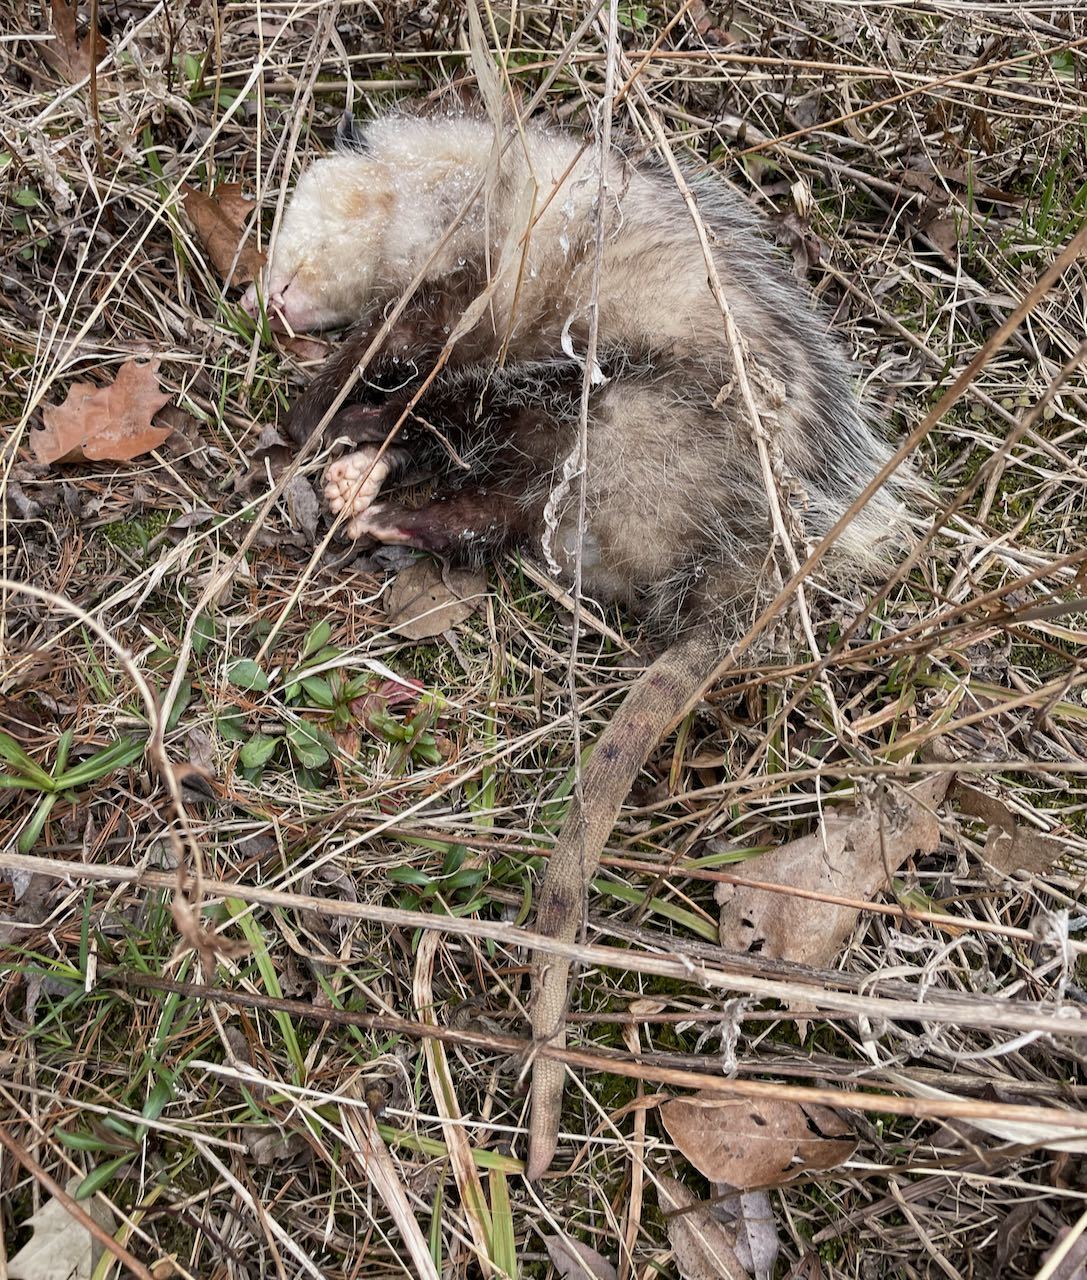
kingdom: Animalia
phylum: Chordata
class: Mammalia
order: Didelphimorphia
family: Didelphidae
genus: Didelphis
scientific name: Didelphis virginiana
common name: Virginia opossum
